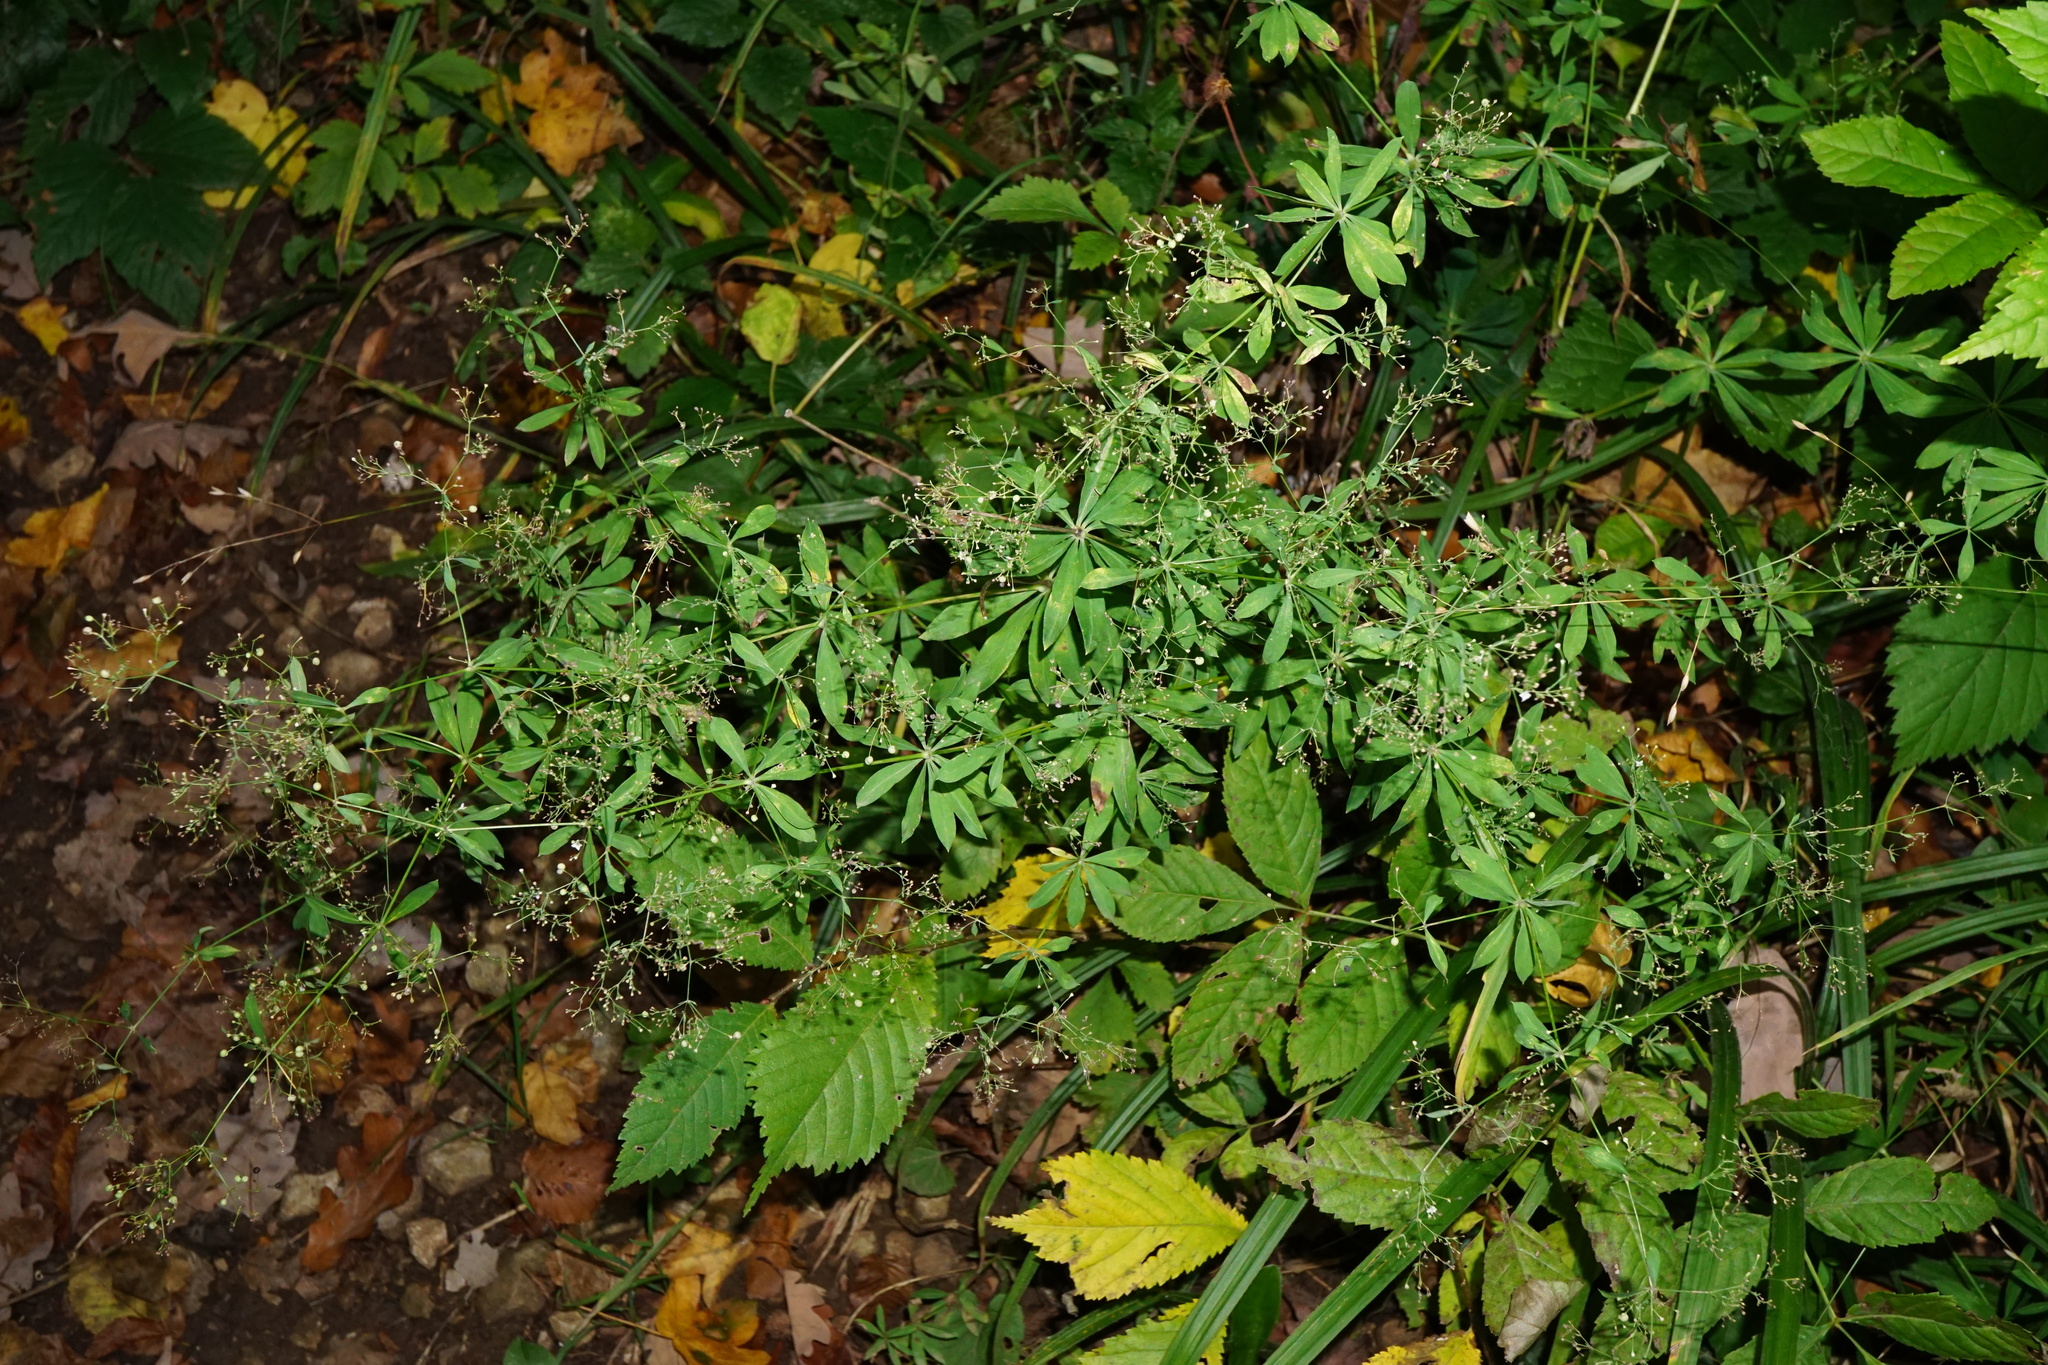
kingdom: Plantae
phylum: Tracheophyta
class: Magnoliopsida
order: Gentianales
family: Rubiaceae
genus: Galium
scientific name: Galium sylvaticum
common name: Wood bedstraw
